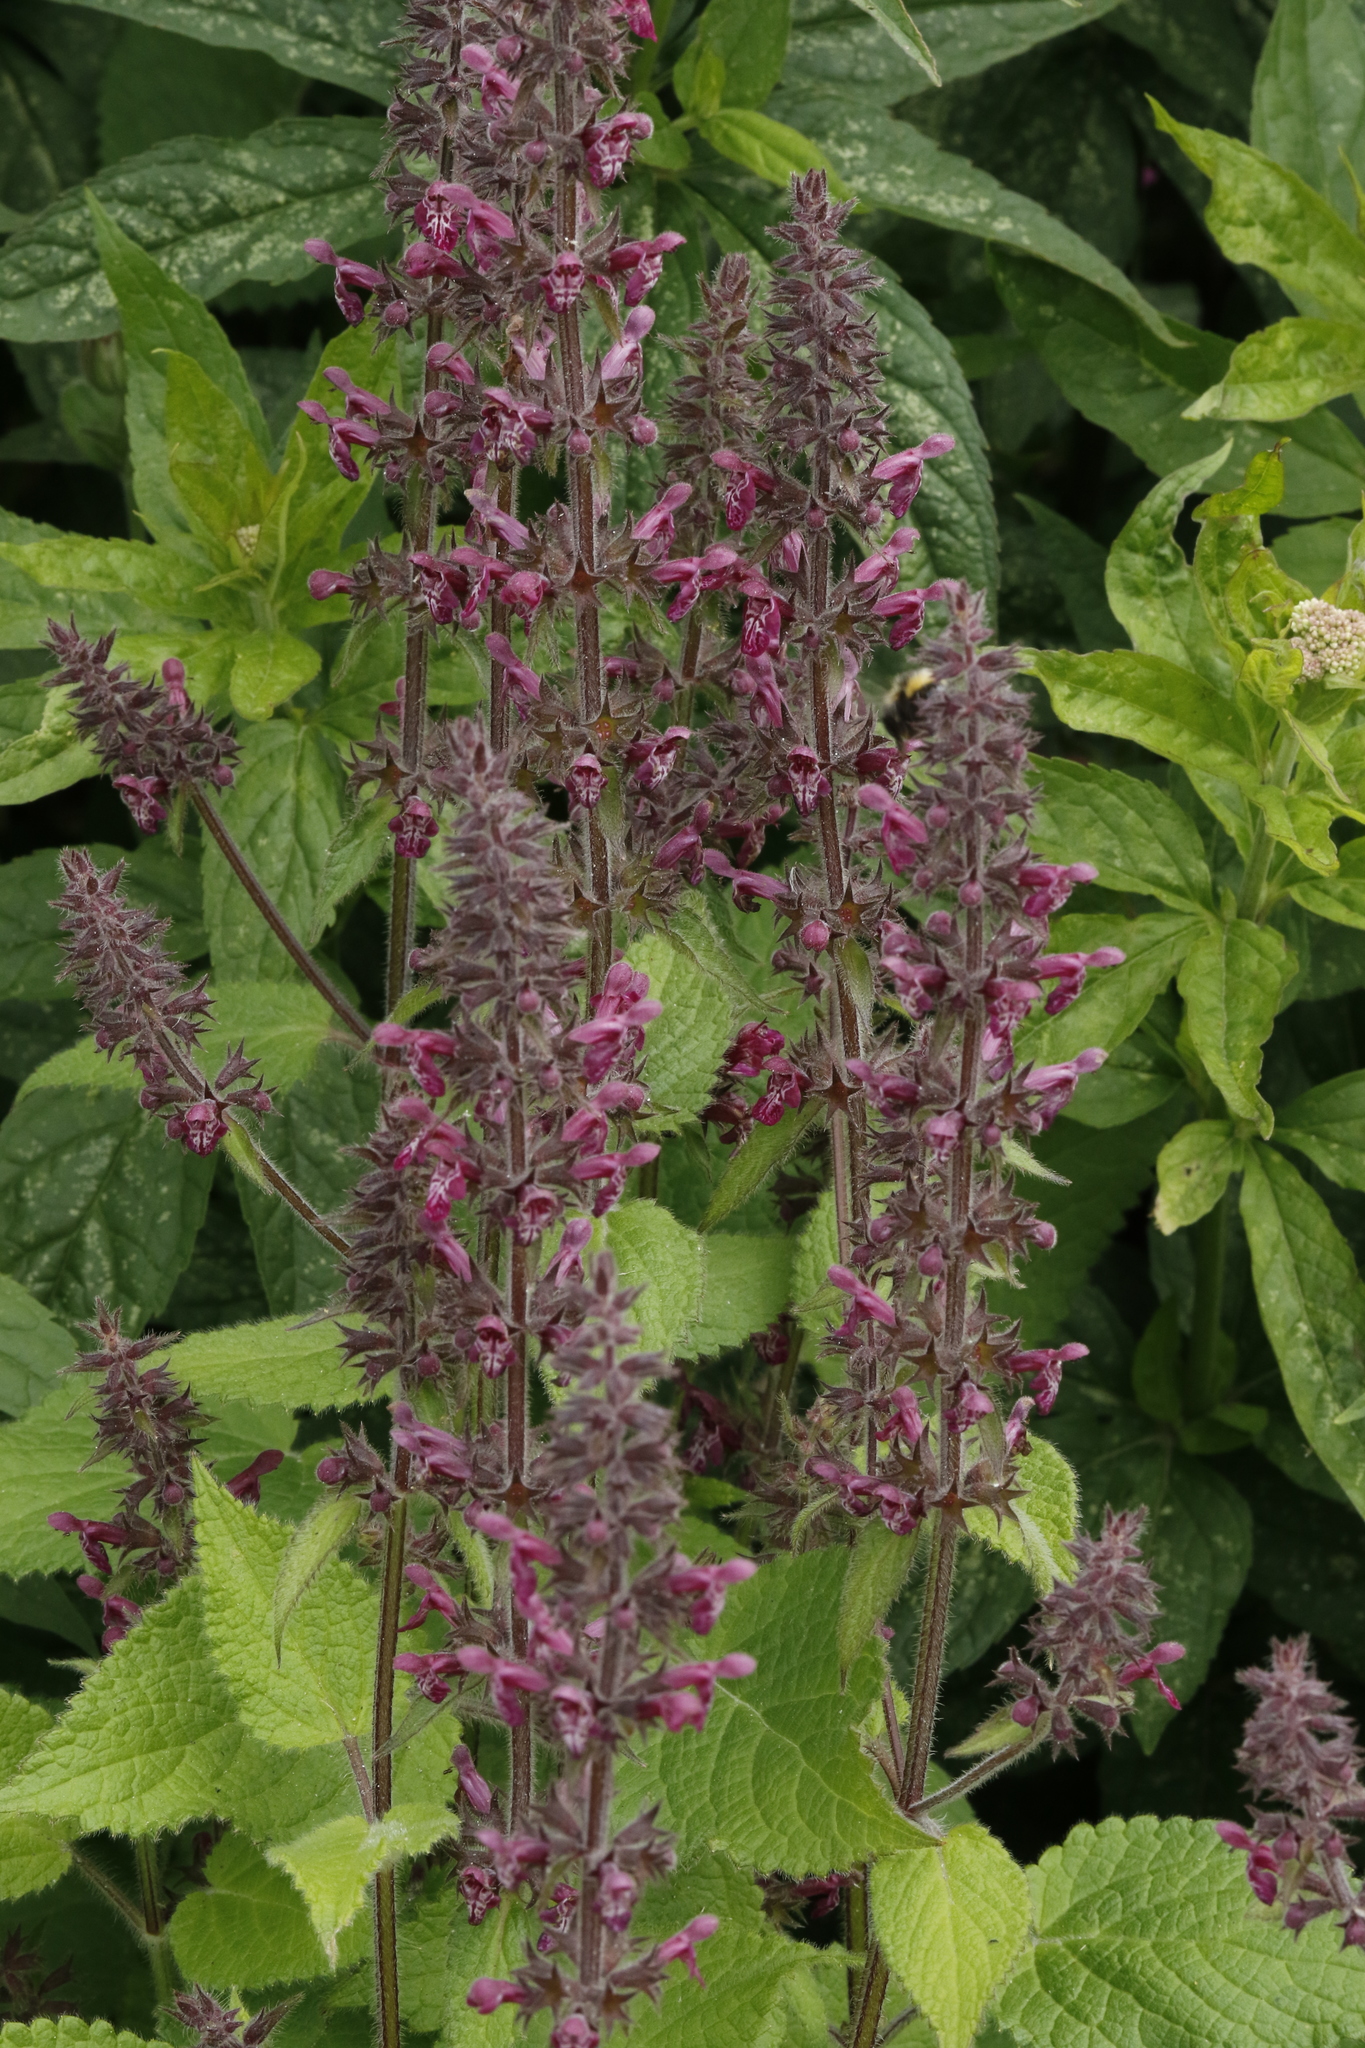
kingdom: Plantae
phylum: Tracheophyta
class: Magnoliopsida
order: Lamiales
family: Lamiaceae
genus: Stachys
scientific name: Stachys sylvatica
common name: Hedge woundwort
